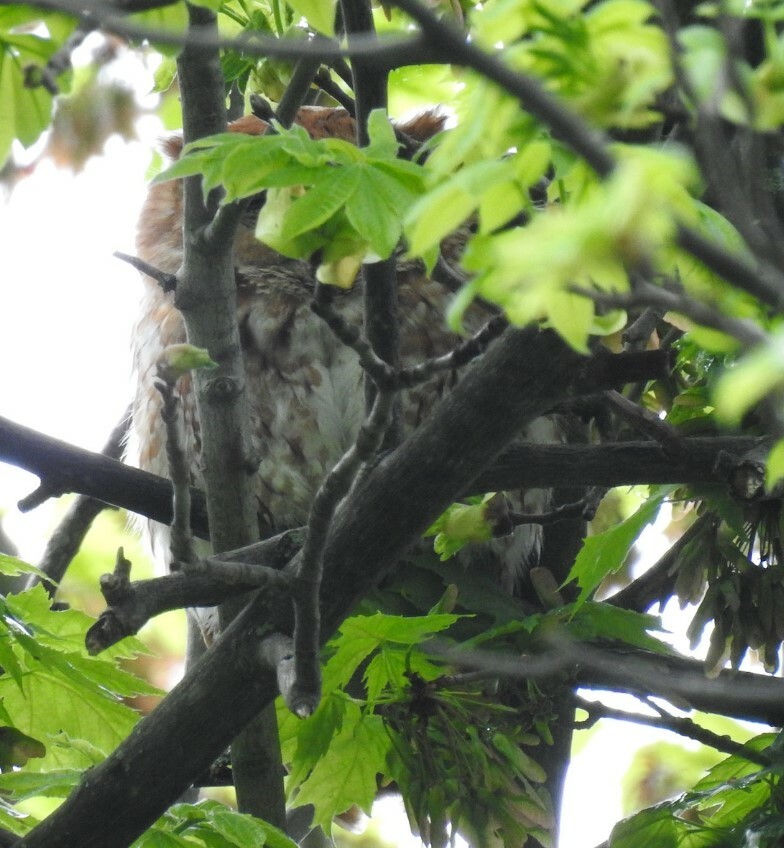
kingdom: Animalia
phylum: Chordata
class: Aves
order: Strigiformes
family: Strigidae
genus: Megascops
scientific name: Megascops asio
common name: Eastern screech-owl
